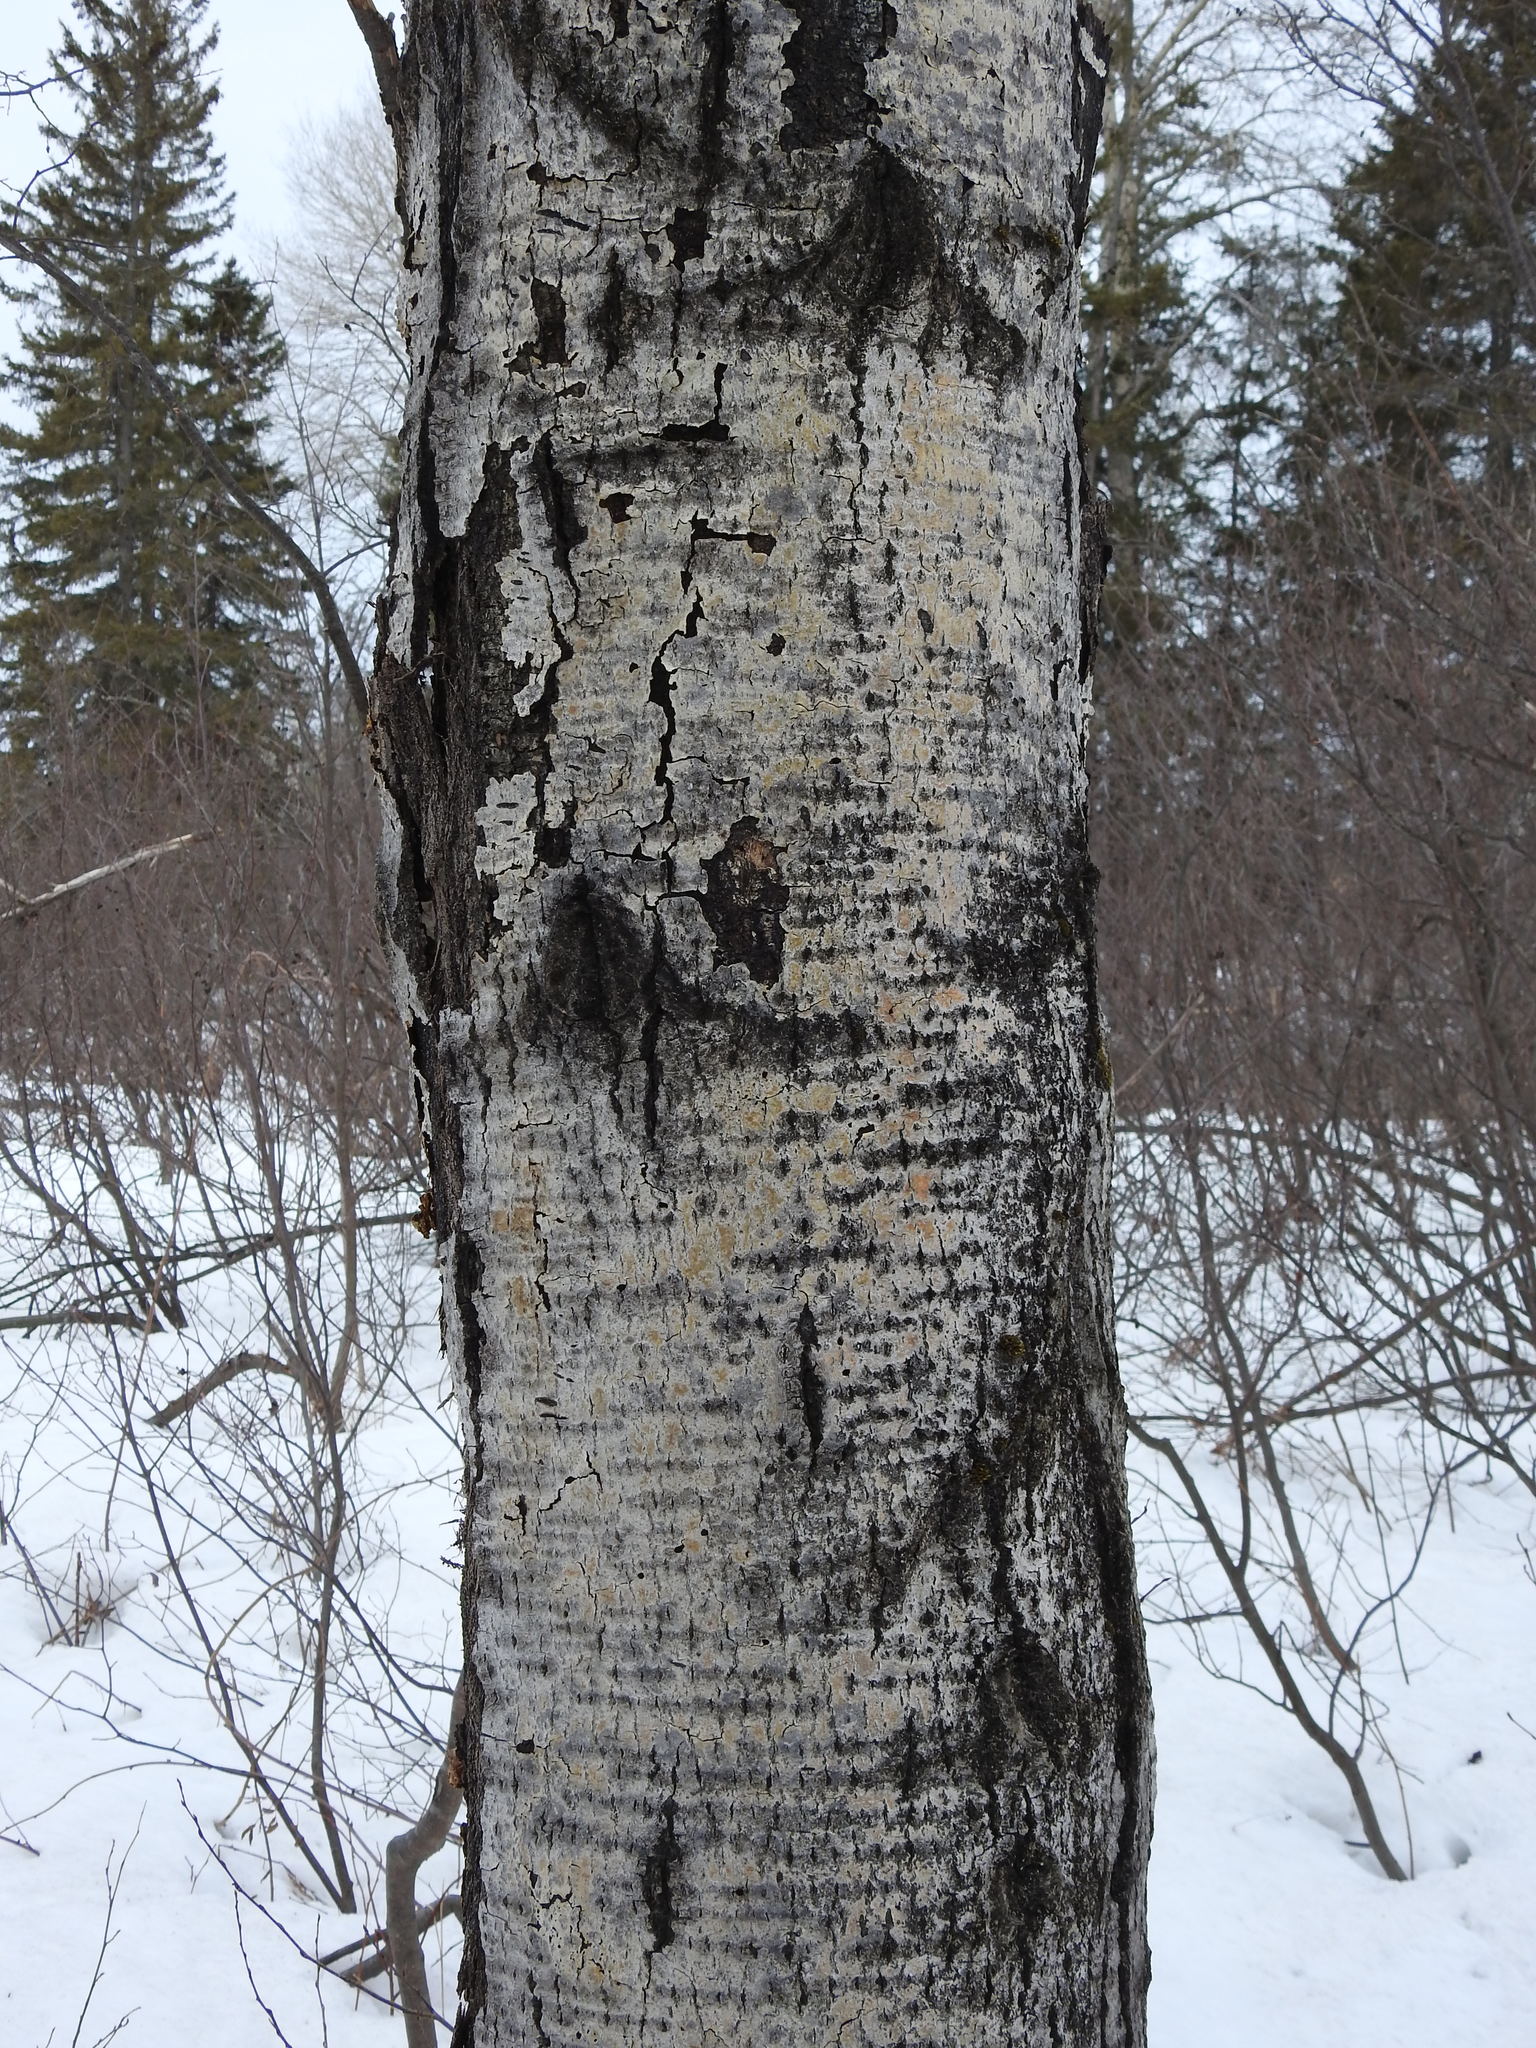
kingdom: Plantae
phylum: Tracheophyta
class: Magnoliopsida
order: Malpighiales
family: Salicaceae
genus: Populus
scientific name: Populus tremuloides
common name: Quaking aspen
